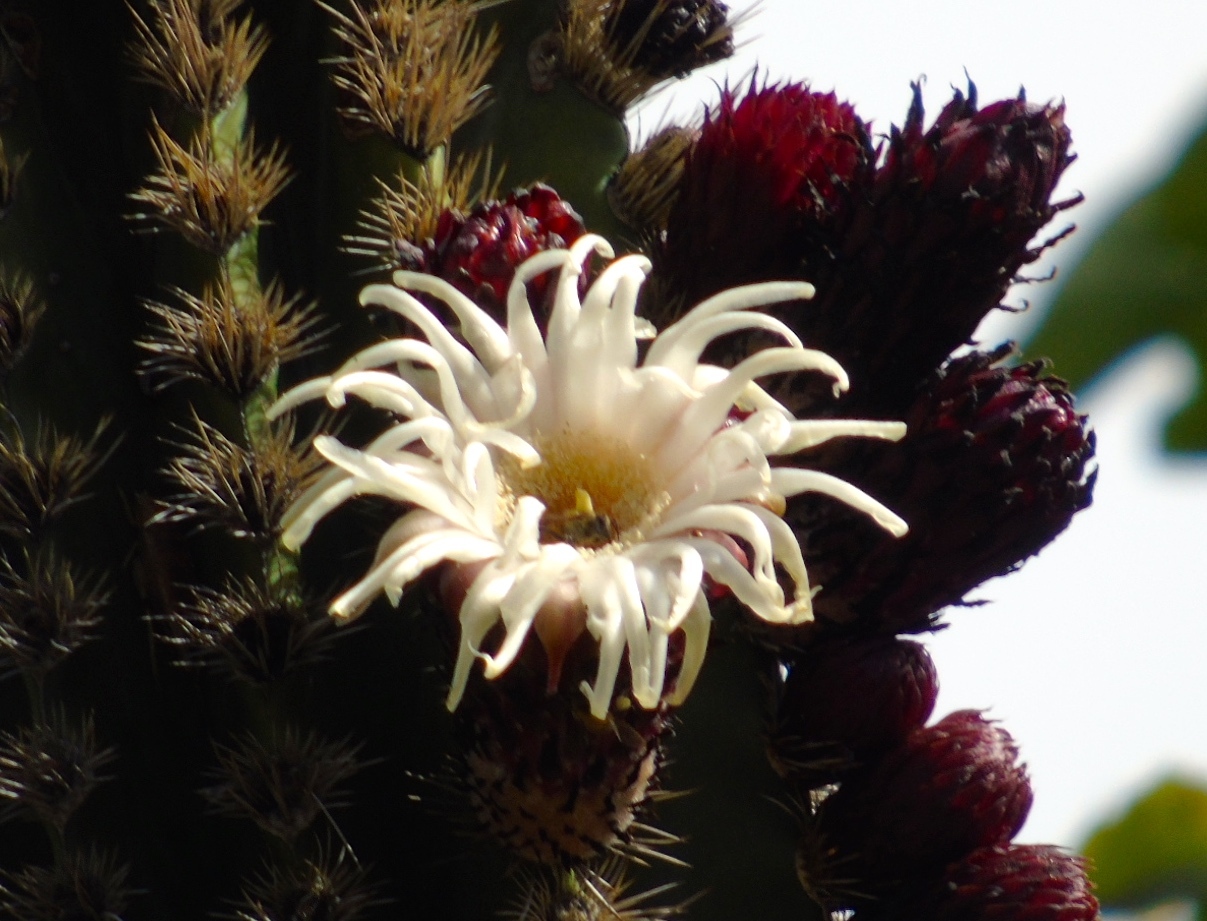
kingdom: Plantae
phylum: Tracheophyta
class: Magnoliopsida
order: Caryophyllales
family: Cactaceae
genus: Pachycereus
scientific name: Pachycereus pecten-aboriginum
